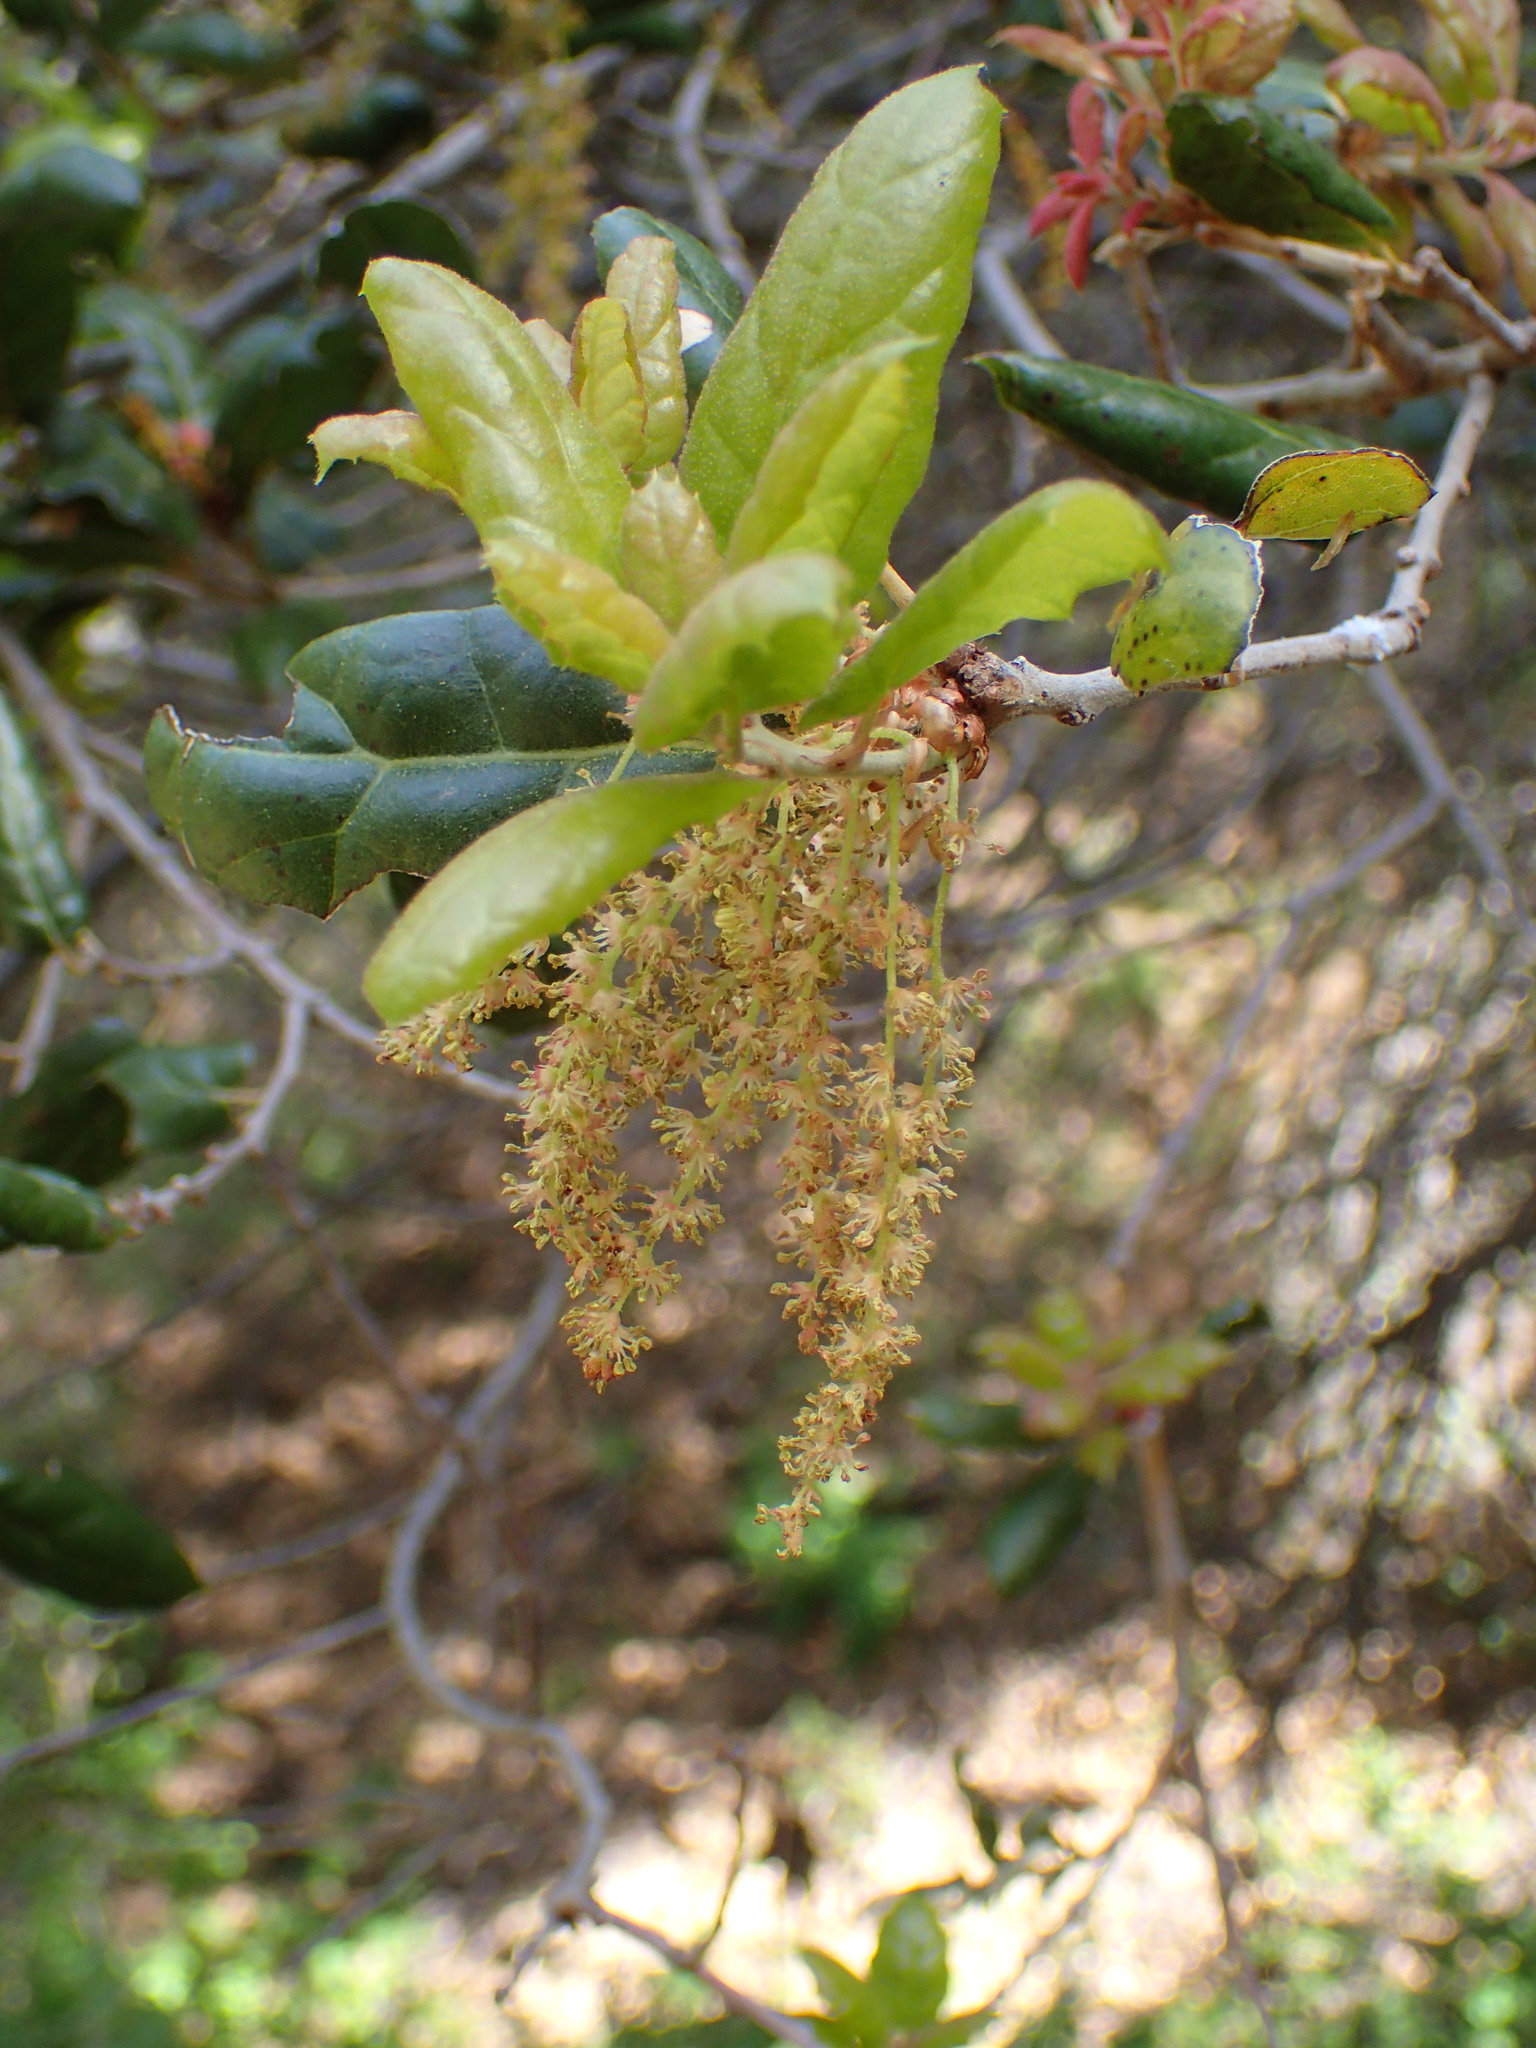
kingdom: Plantae
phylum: Tracheophyta
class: Magnoliopsida
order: Fagales
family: Fagaceae
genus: Quercus
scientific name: Quercus agrifolia
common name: California live oak
